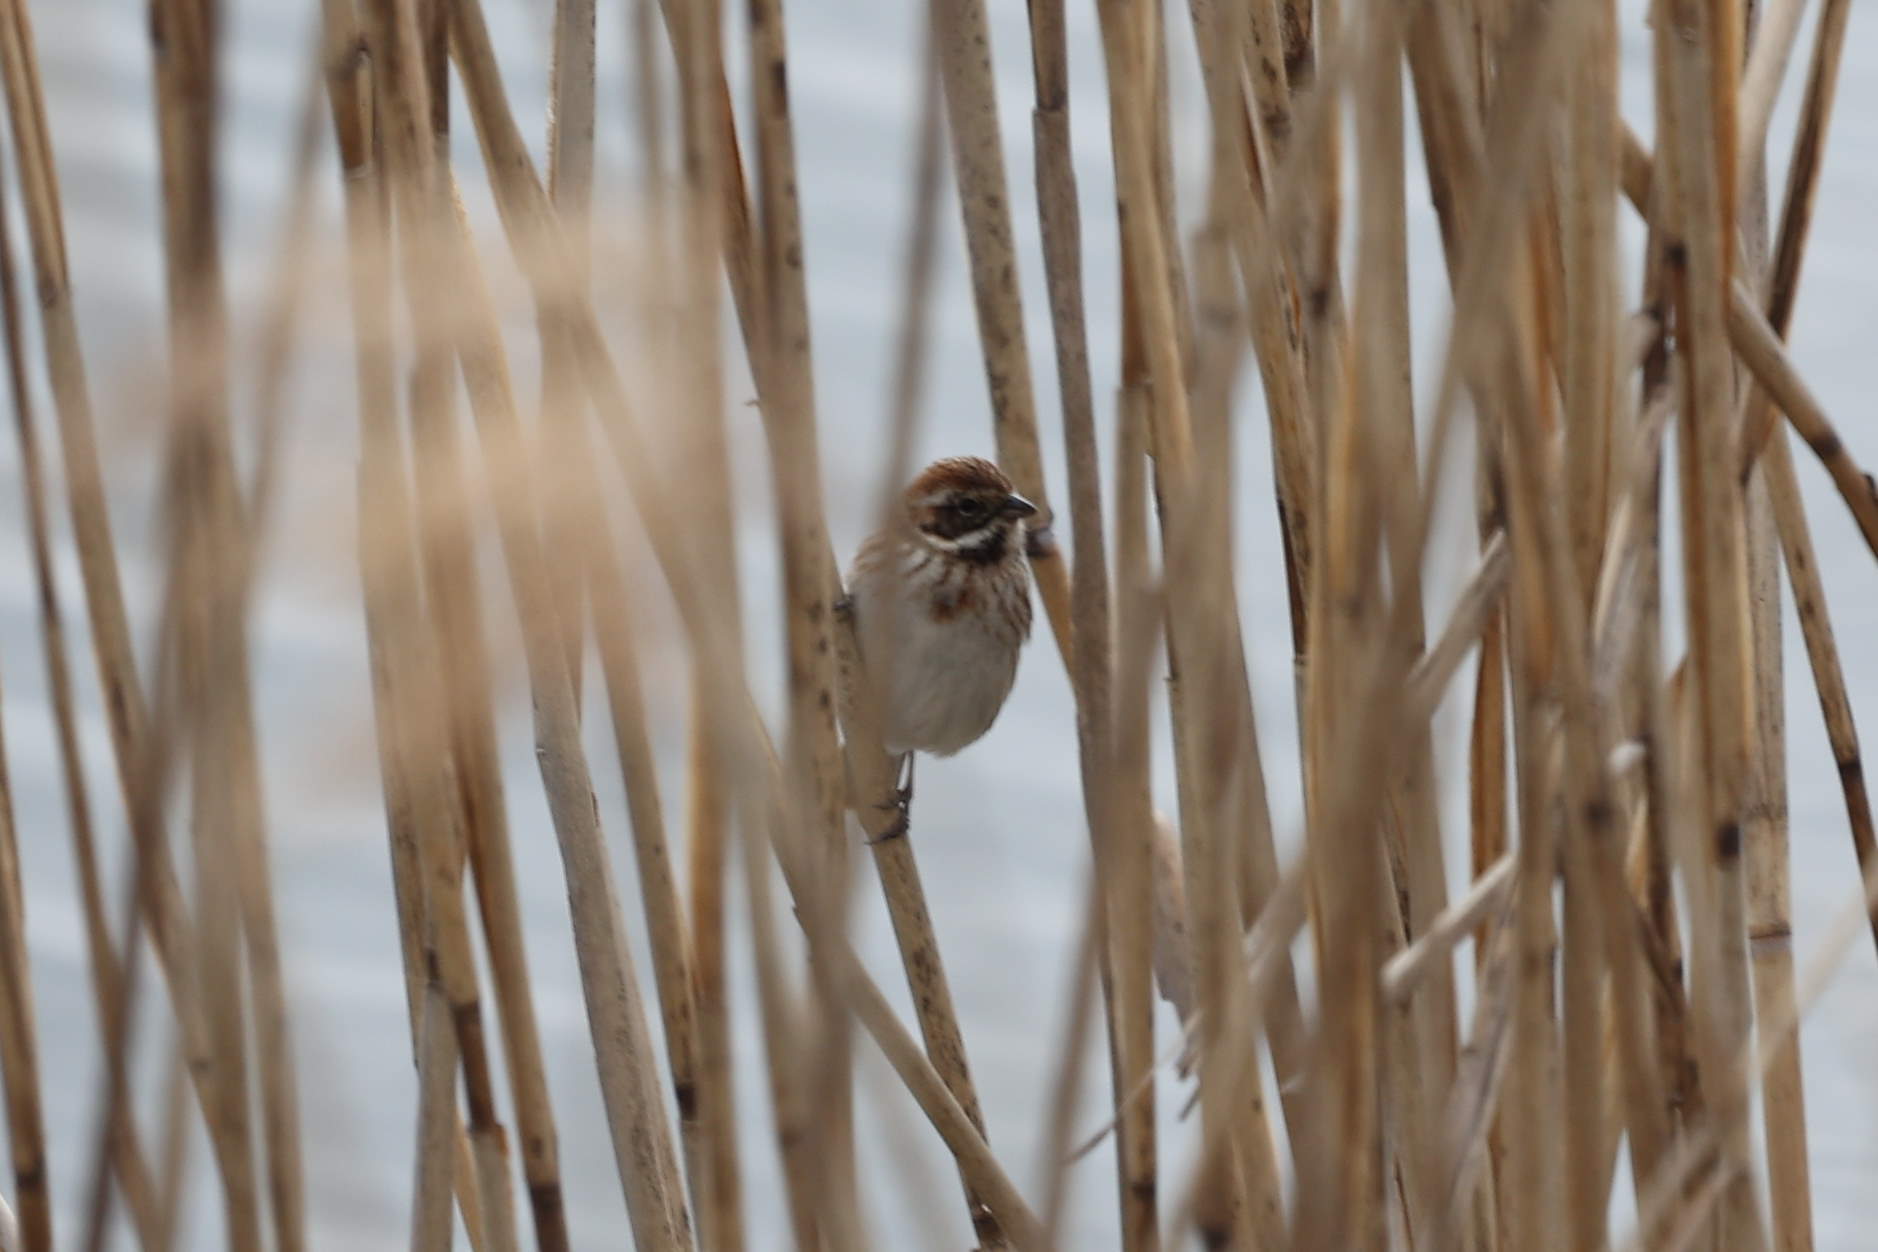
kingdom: Animalia
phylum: Chordata
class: Aves
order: Passeriformes
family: Emberizidae
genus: Emberiza
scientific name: Emberiza schoeniclus
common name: Reed bunting
